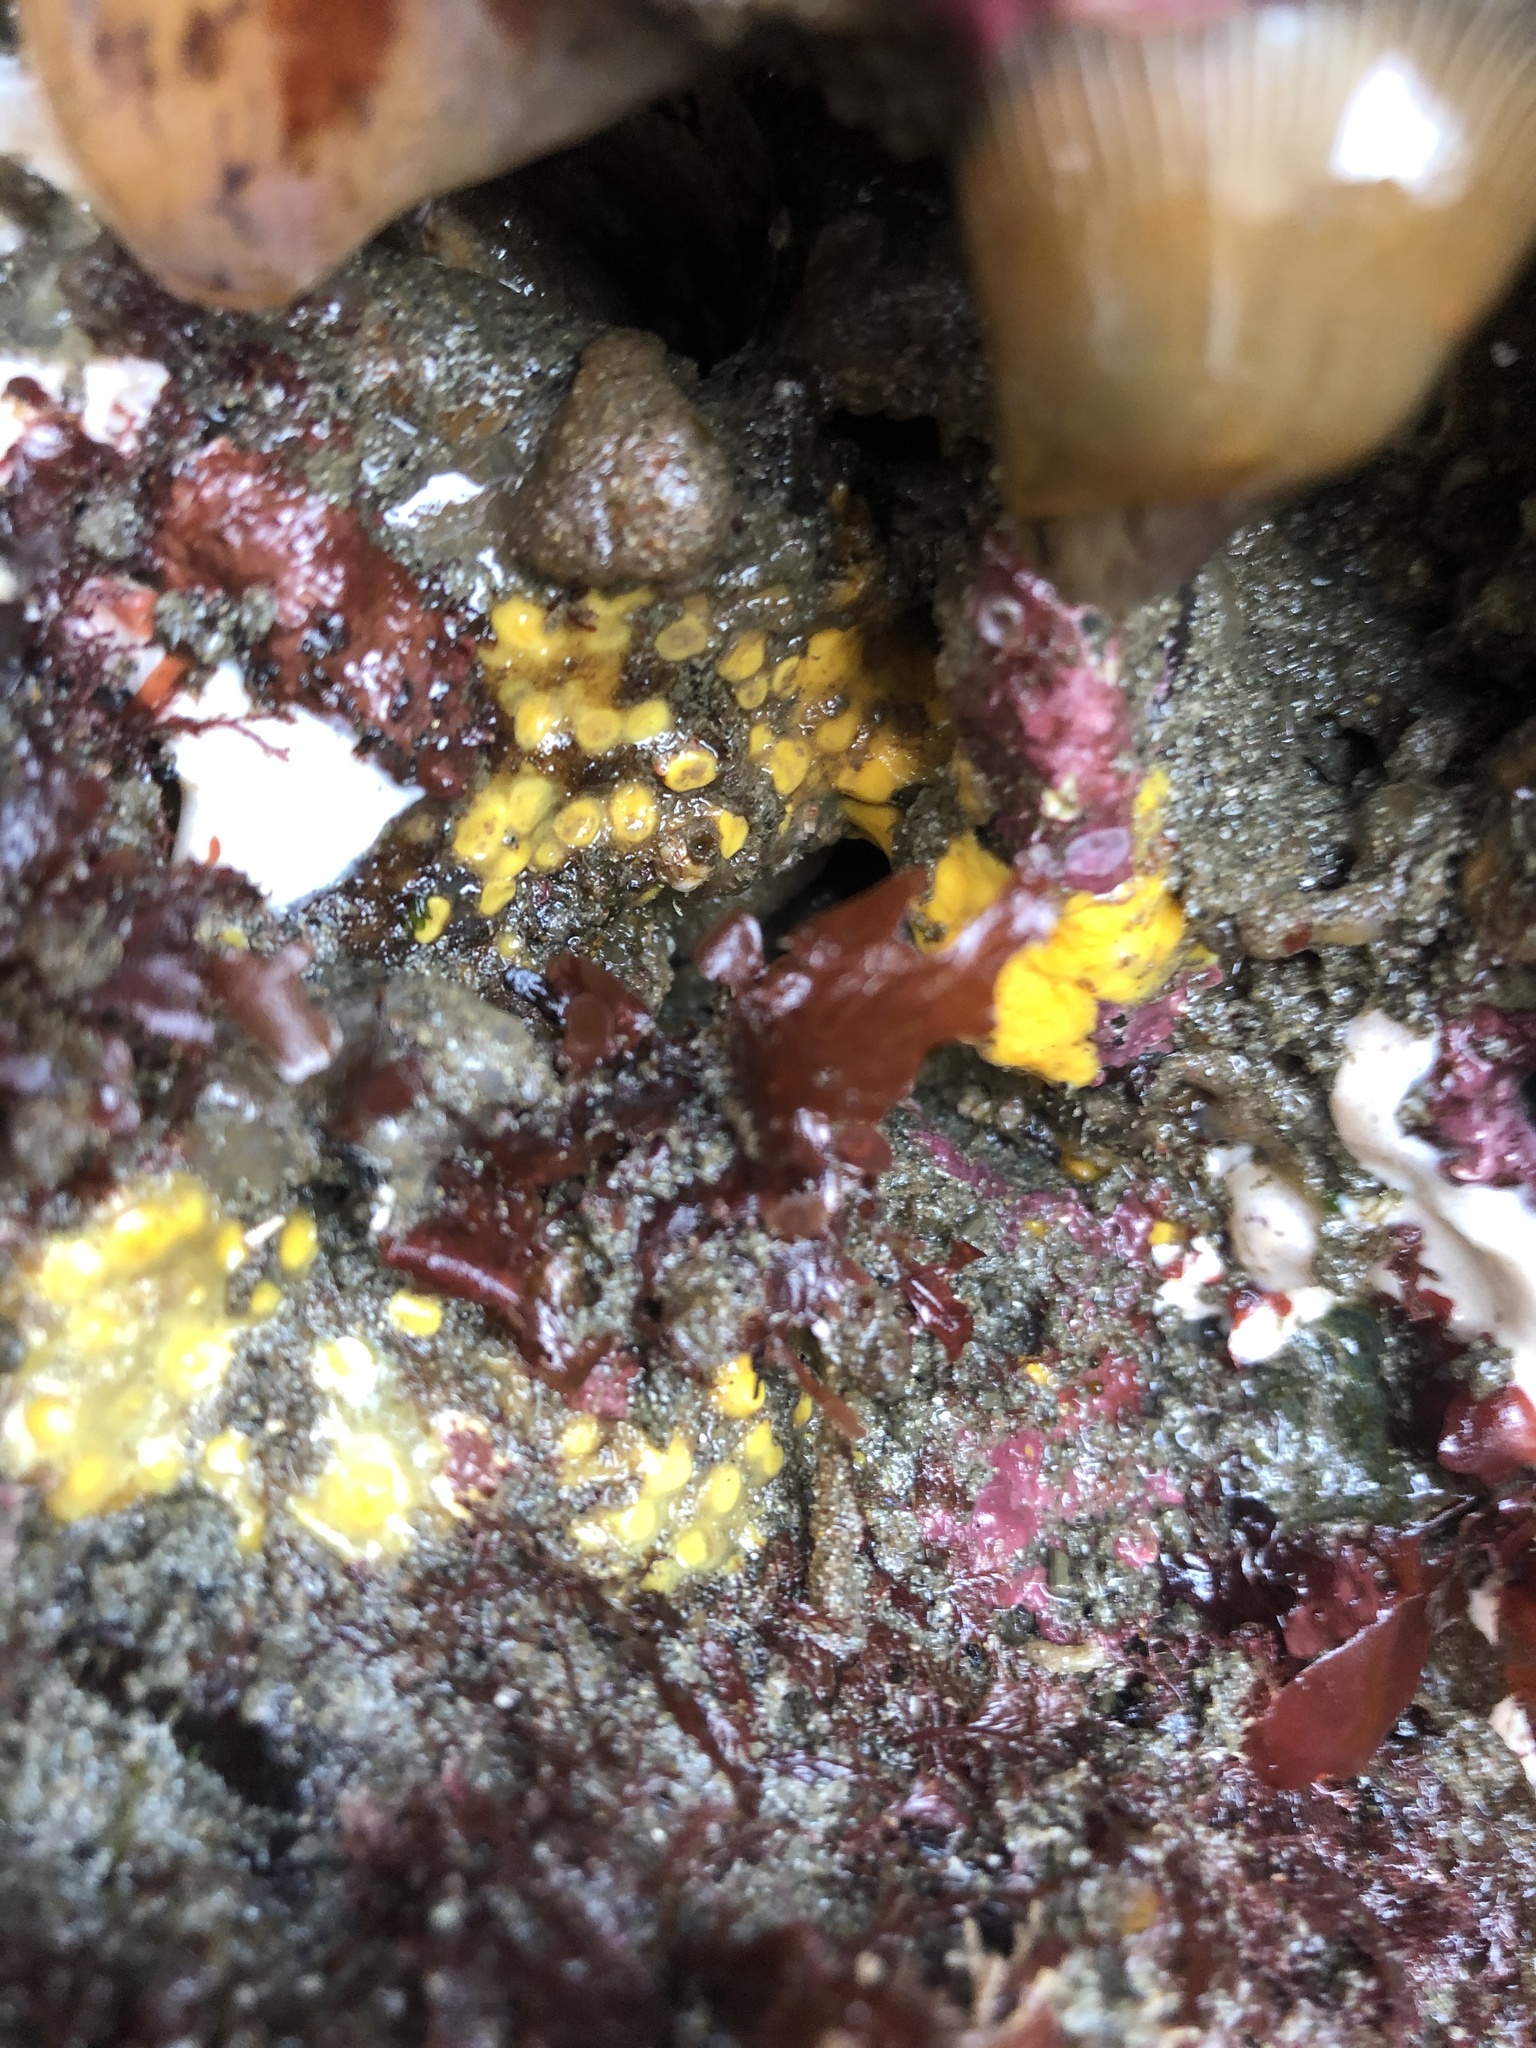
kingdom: Animalia
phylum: Porifera
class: Demospongiae
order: Clionaida
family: Clionaidae
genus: Cliona
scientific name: Cliona californiana
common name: California boring horny sponge
